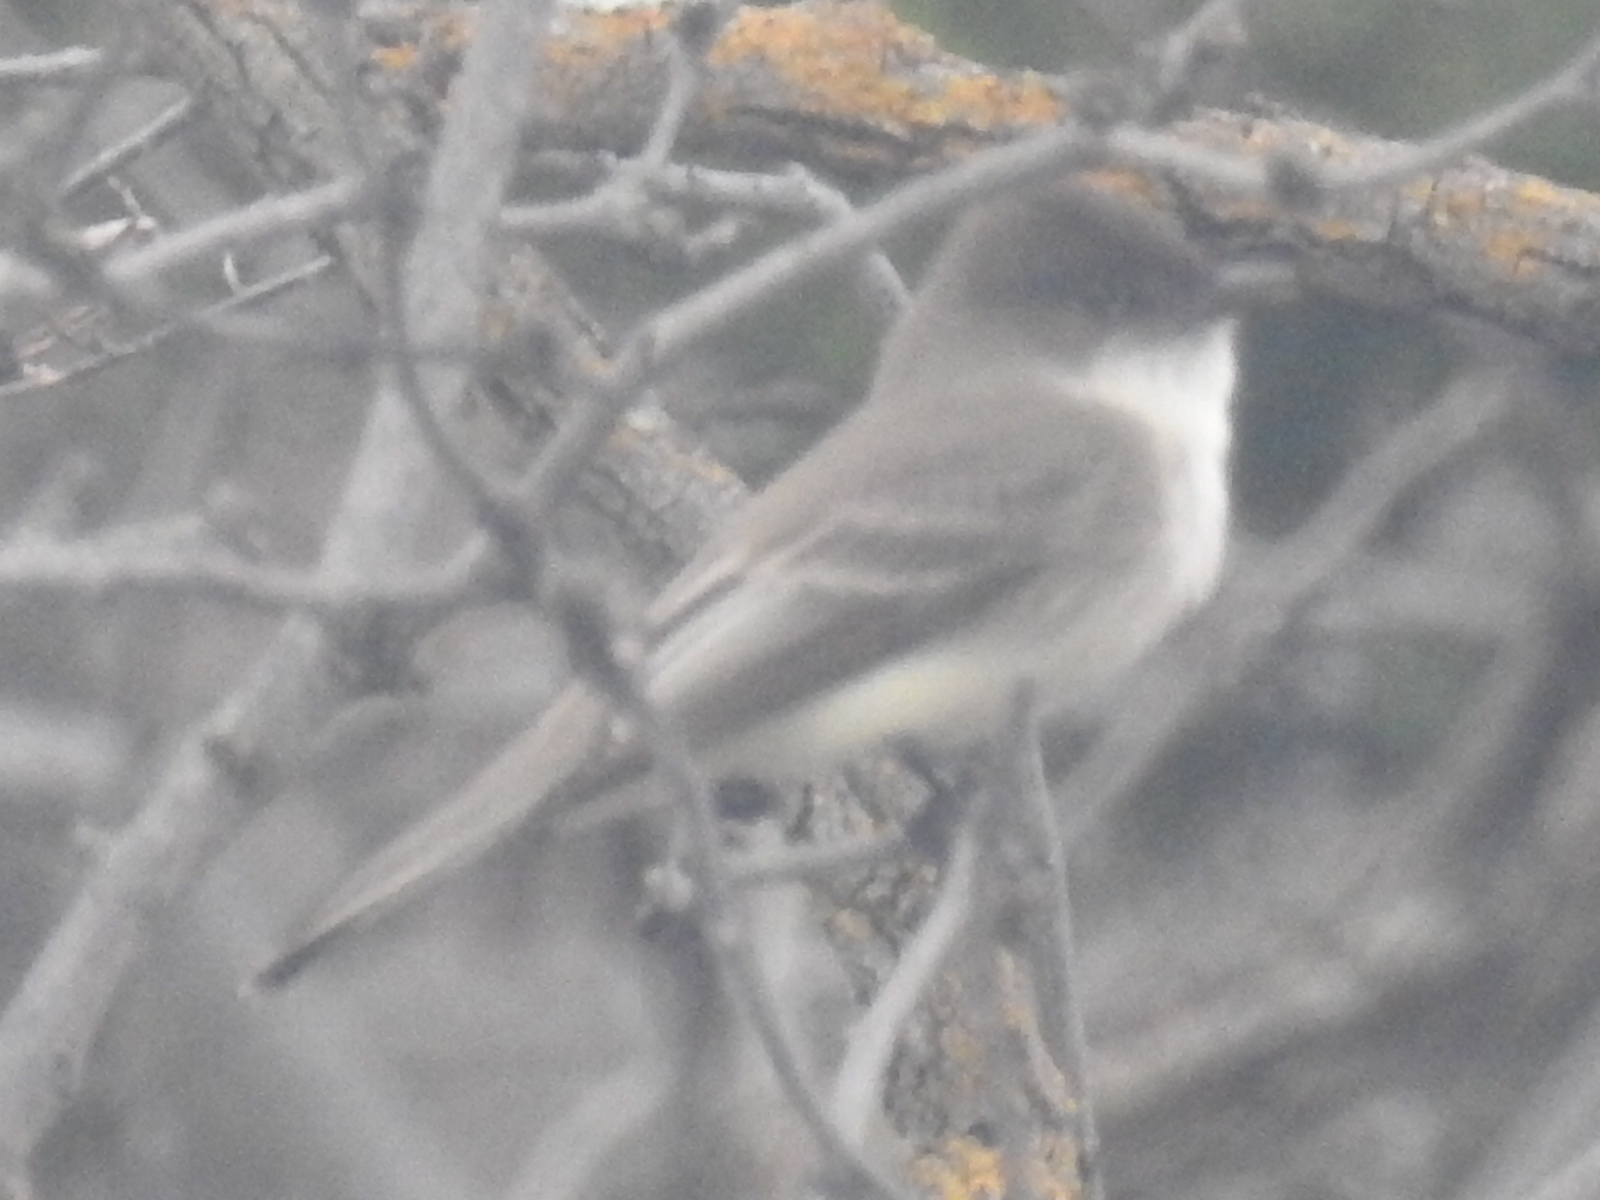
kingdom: Animalia
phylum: Chordata
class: Aves
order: Passeriformes
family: Tyrannidae
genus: Sayornis
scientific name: Sayornis phoebe
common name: Eastern phoebe
